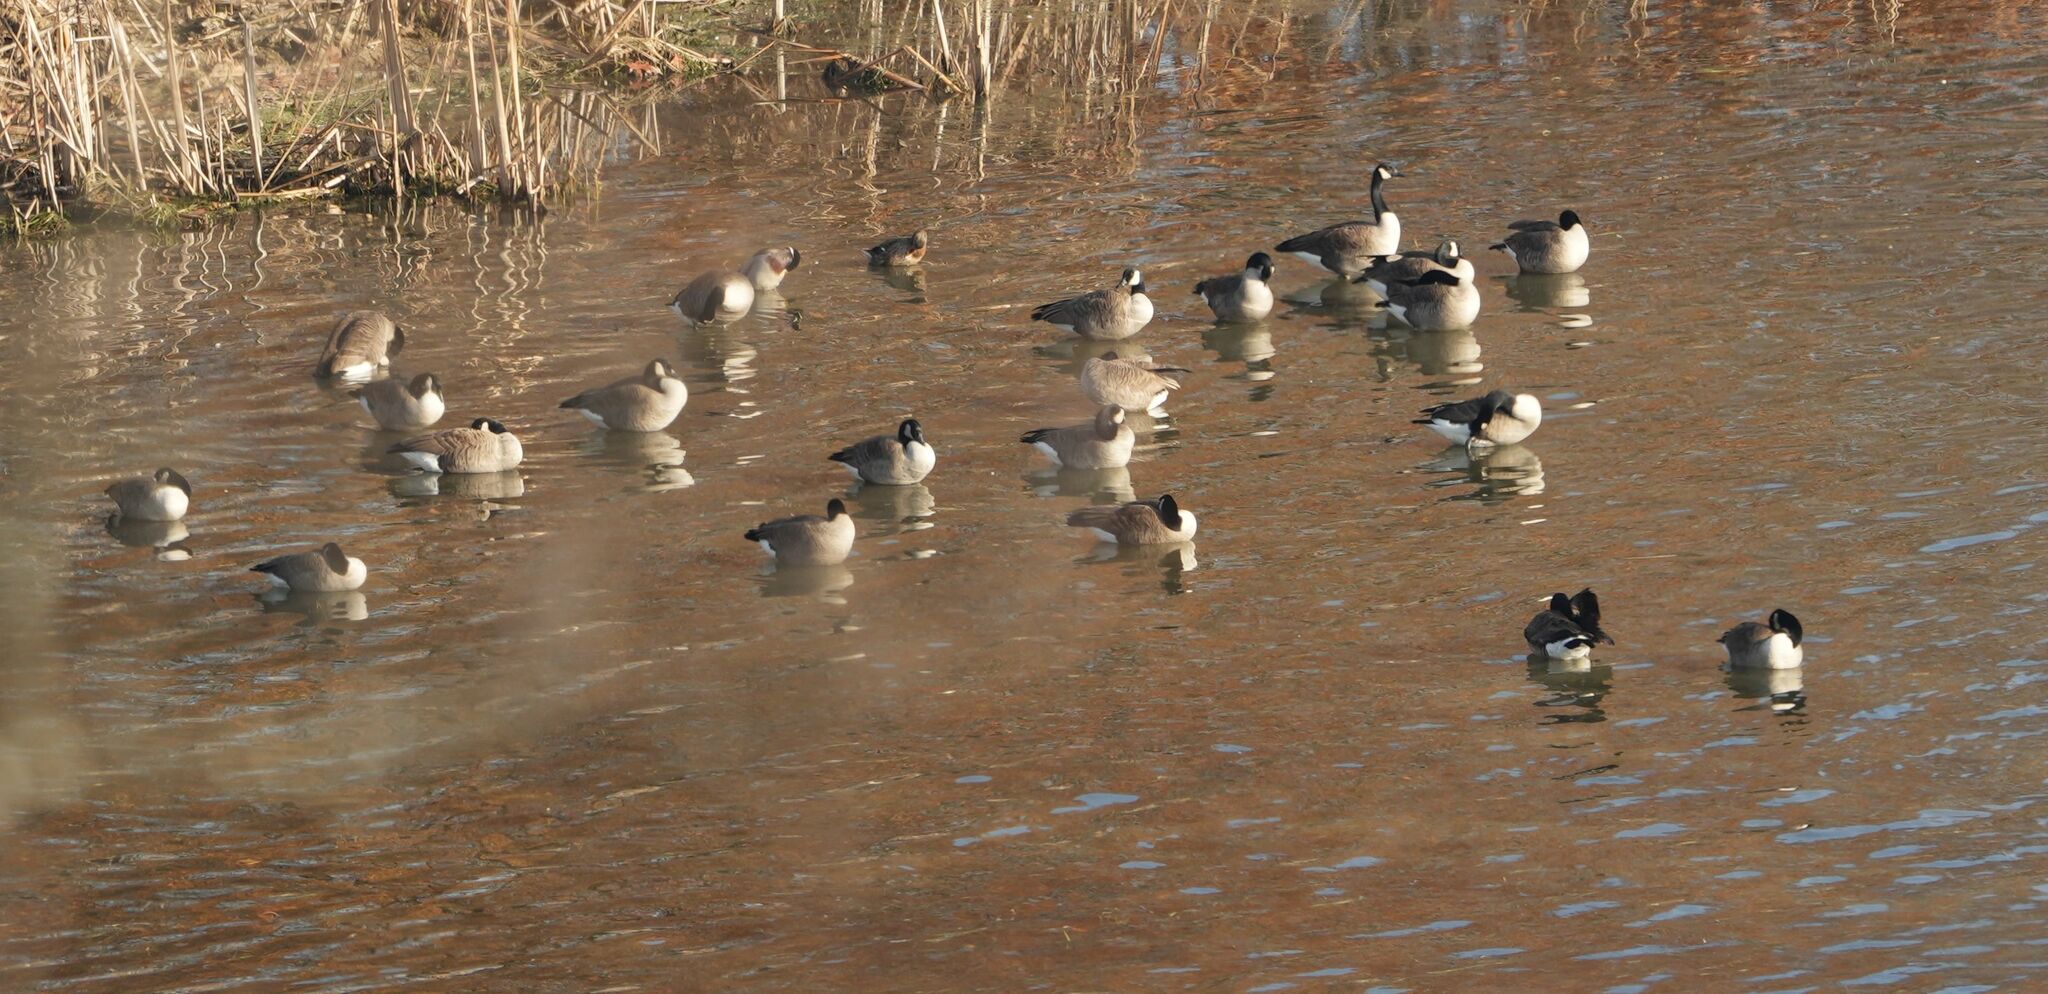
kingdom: Animalia
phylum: Chordata
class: Aves
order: Anseriformes
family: Anatidae
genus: Branta
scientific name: Branta canadensis
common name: Canada goose
